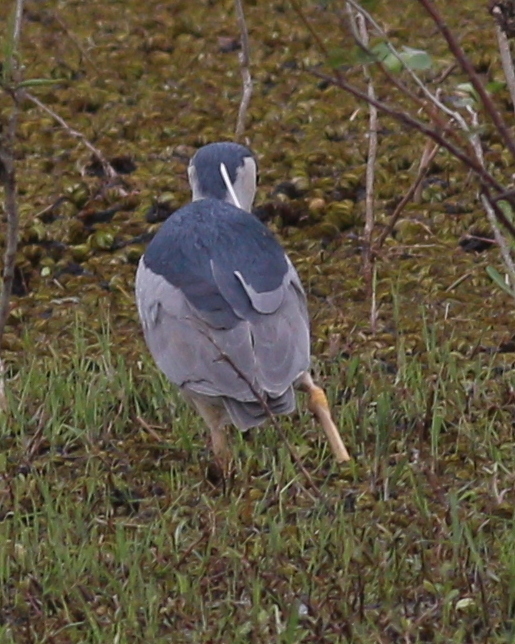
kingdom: Animalia
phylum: Chordata
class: Aves
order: Pelecaniformes
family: Ardeidae
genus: Nycticorax
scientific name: Nycticorax nycticorax
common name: Black-crowned night heron
